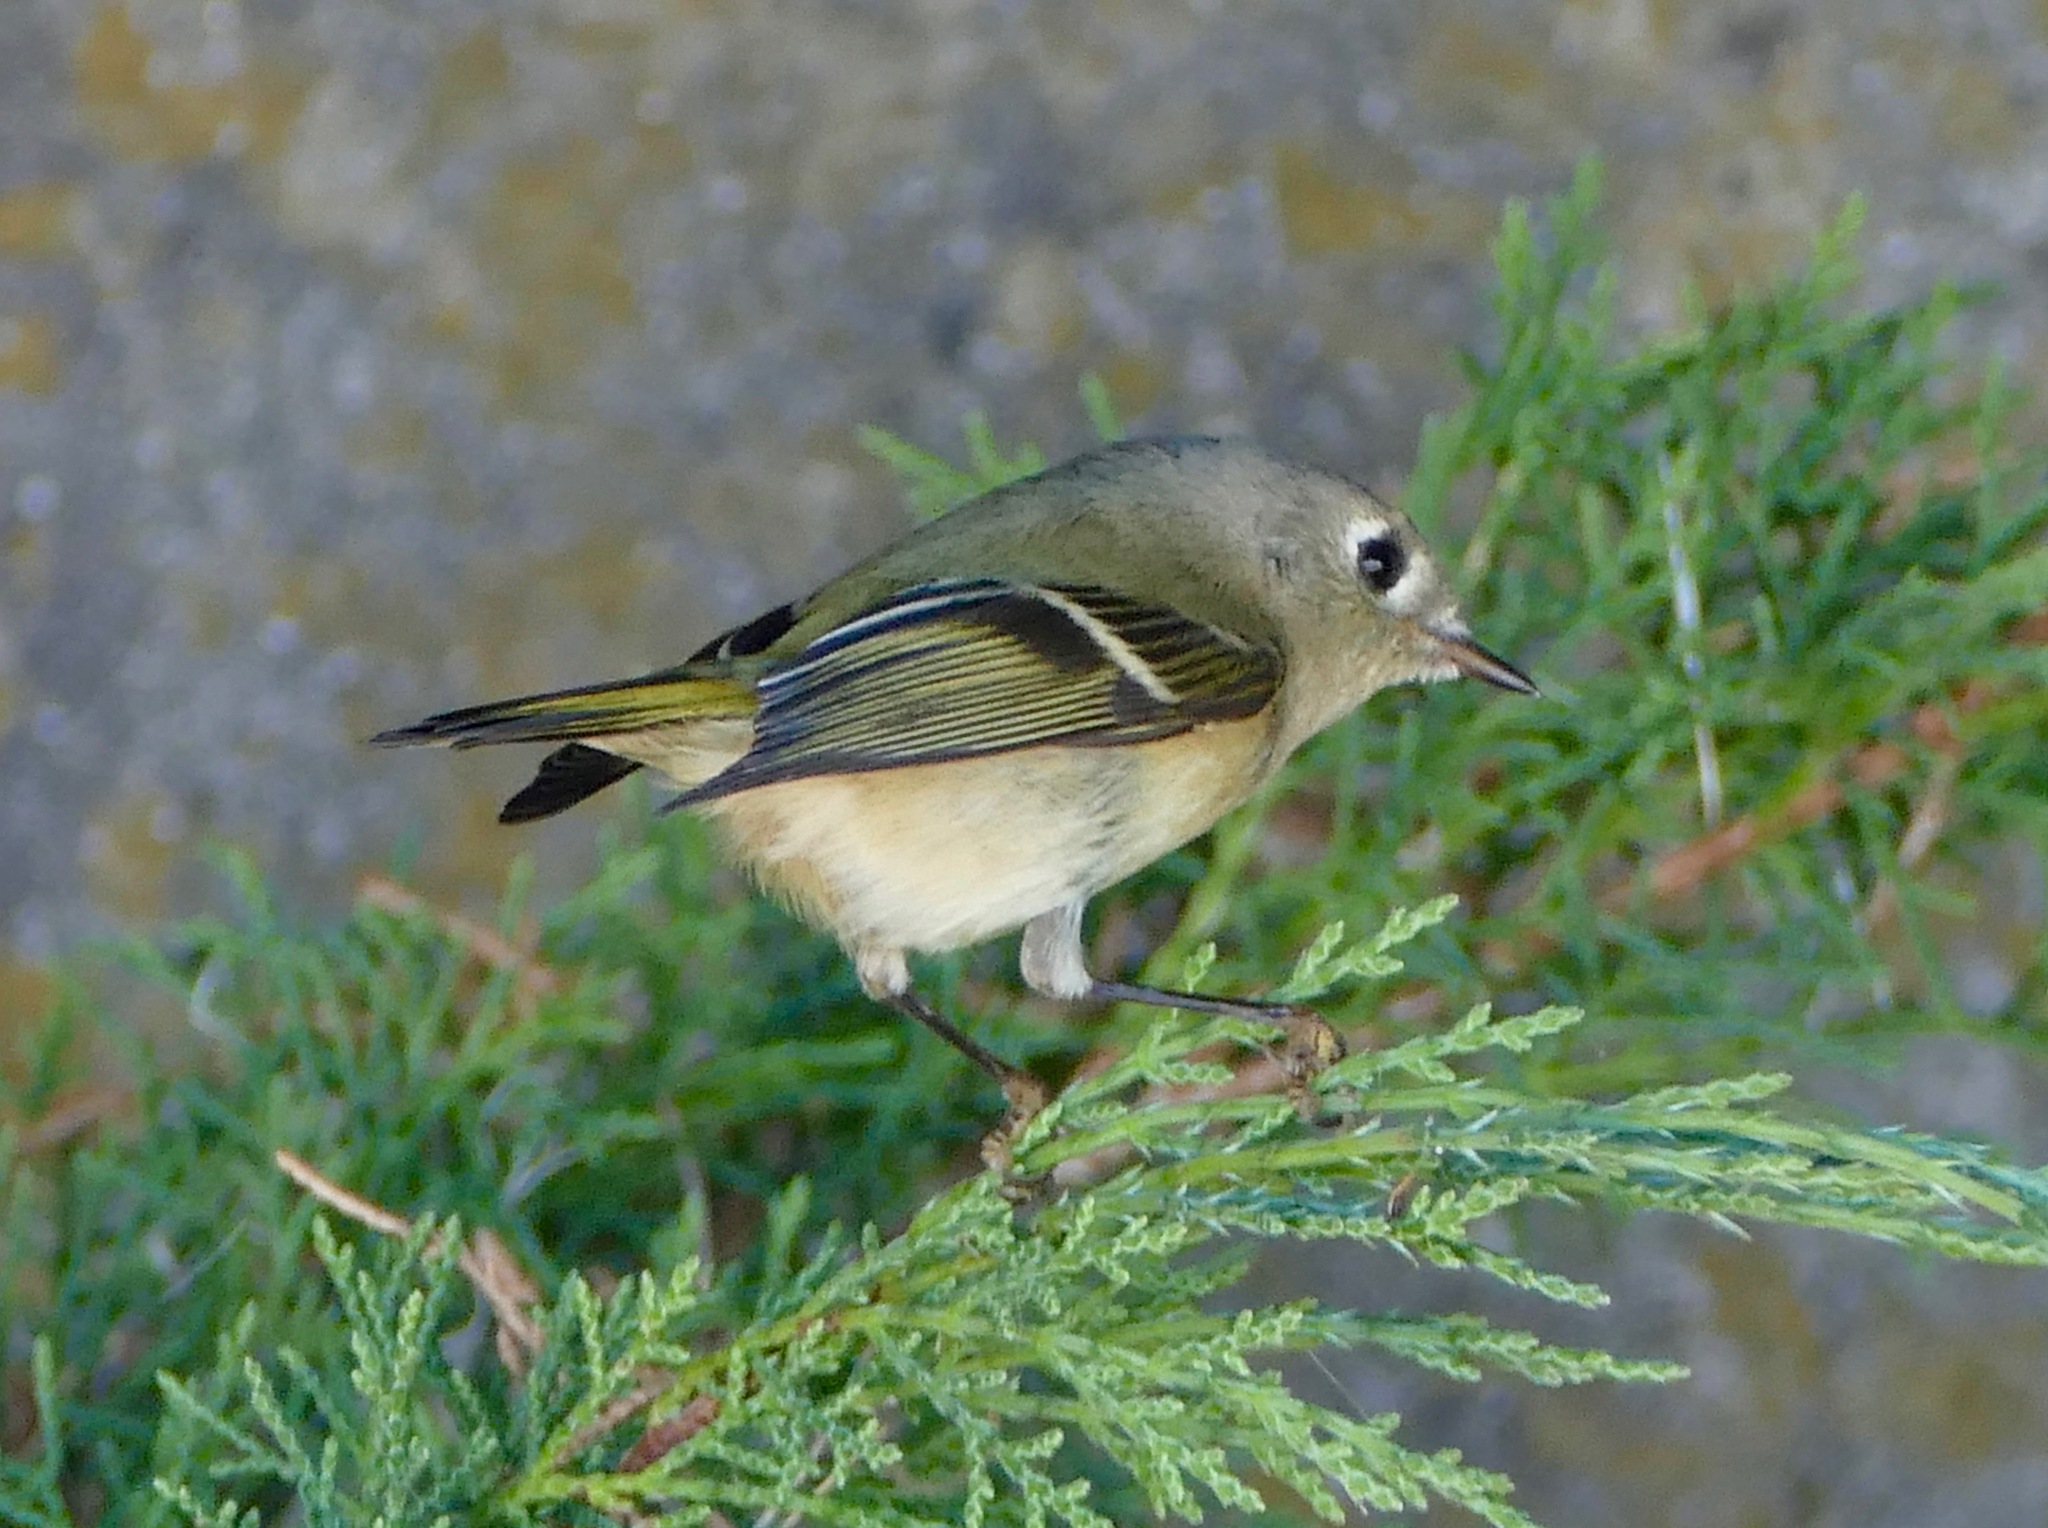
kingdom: Animalia
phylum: Chordata
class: Aves
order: Passeriformes
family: Regulidae
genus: Regulus
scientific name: Regulus calendula
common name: Ruby-crowned kinglet
